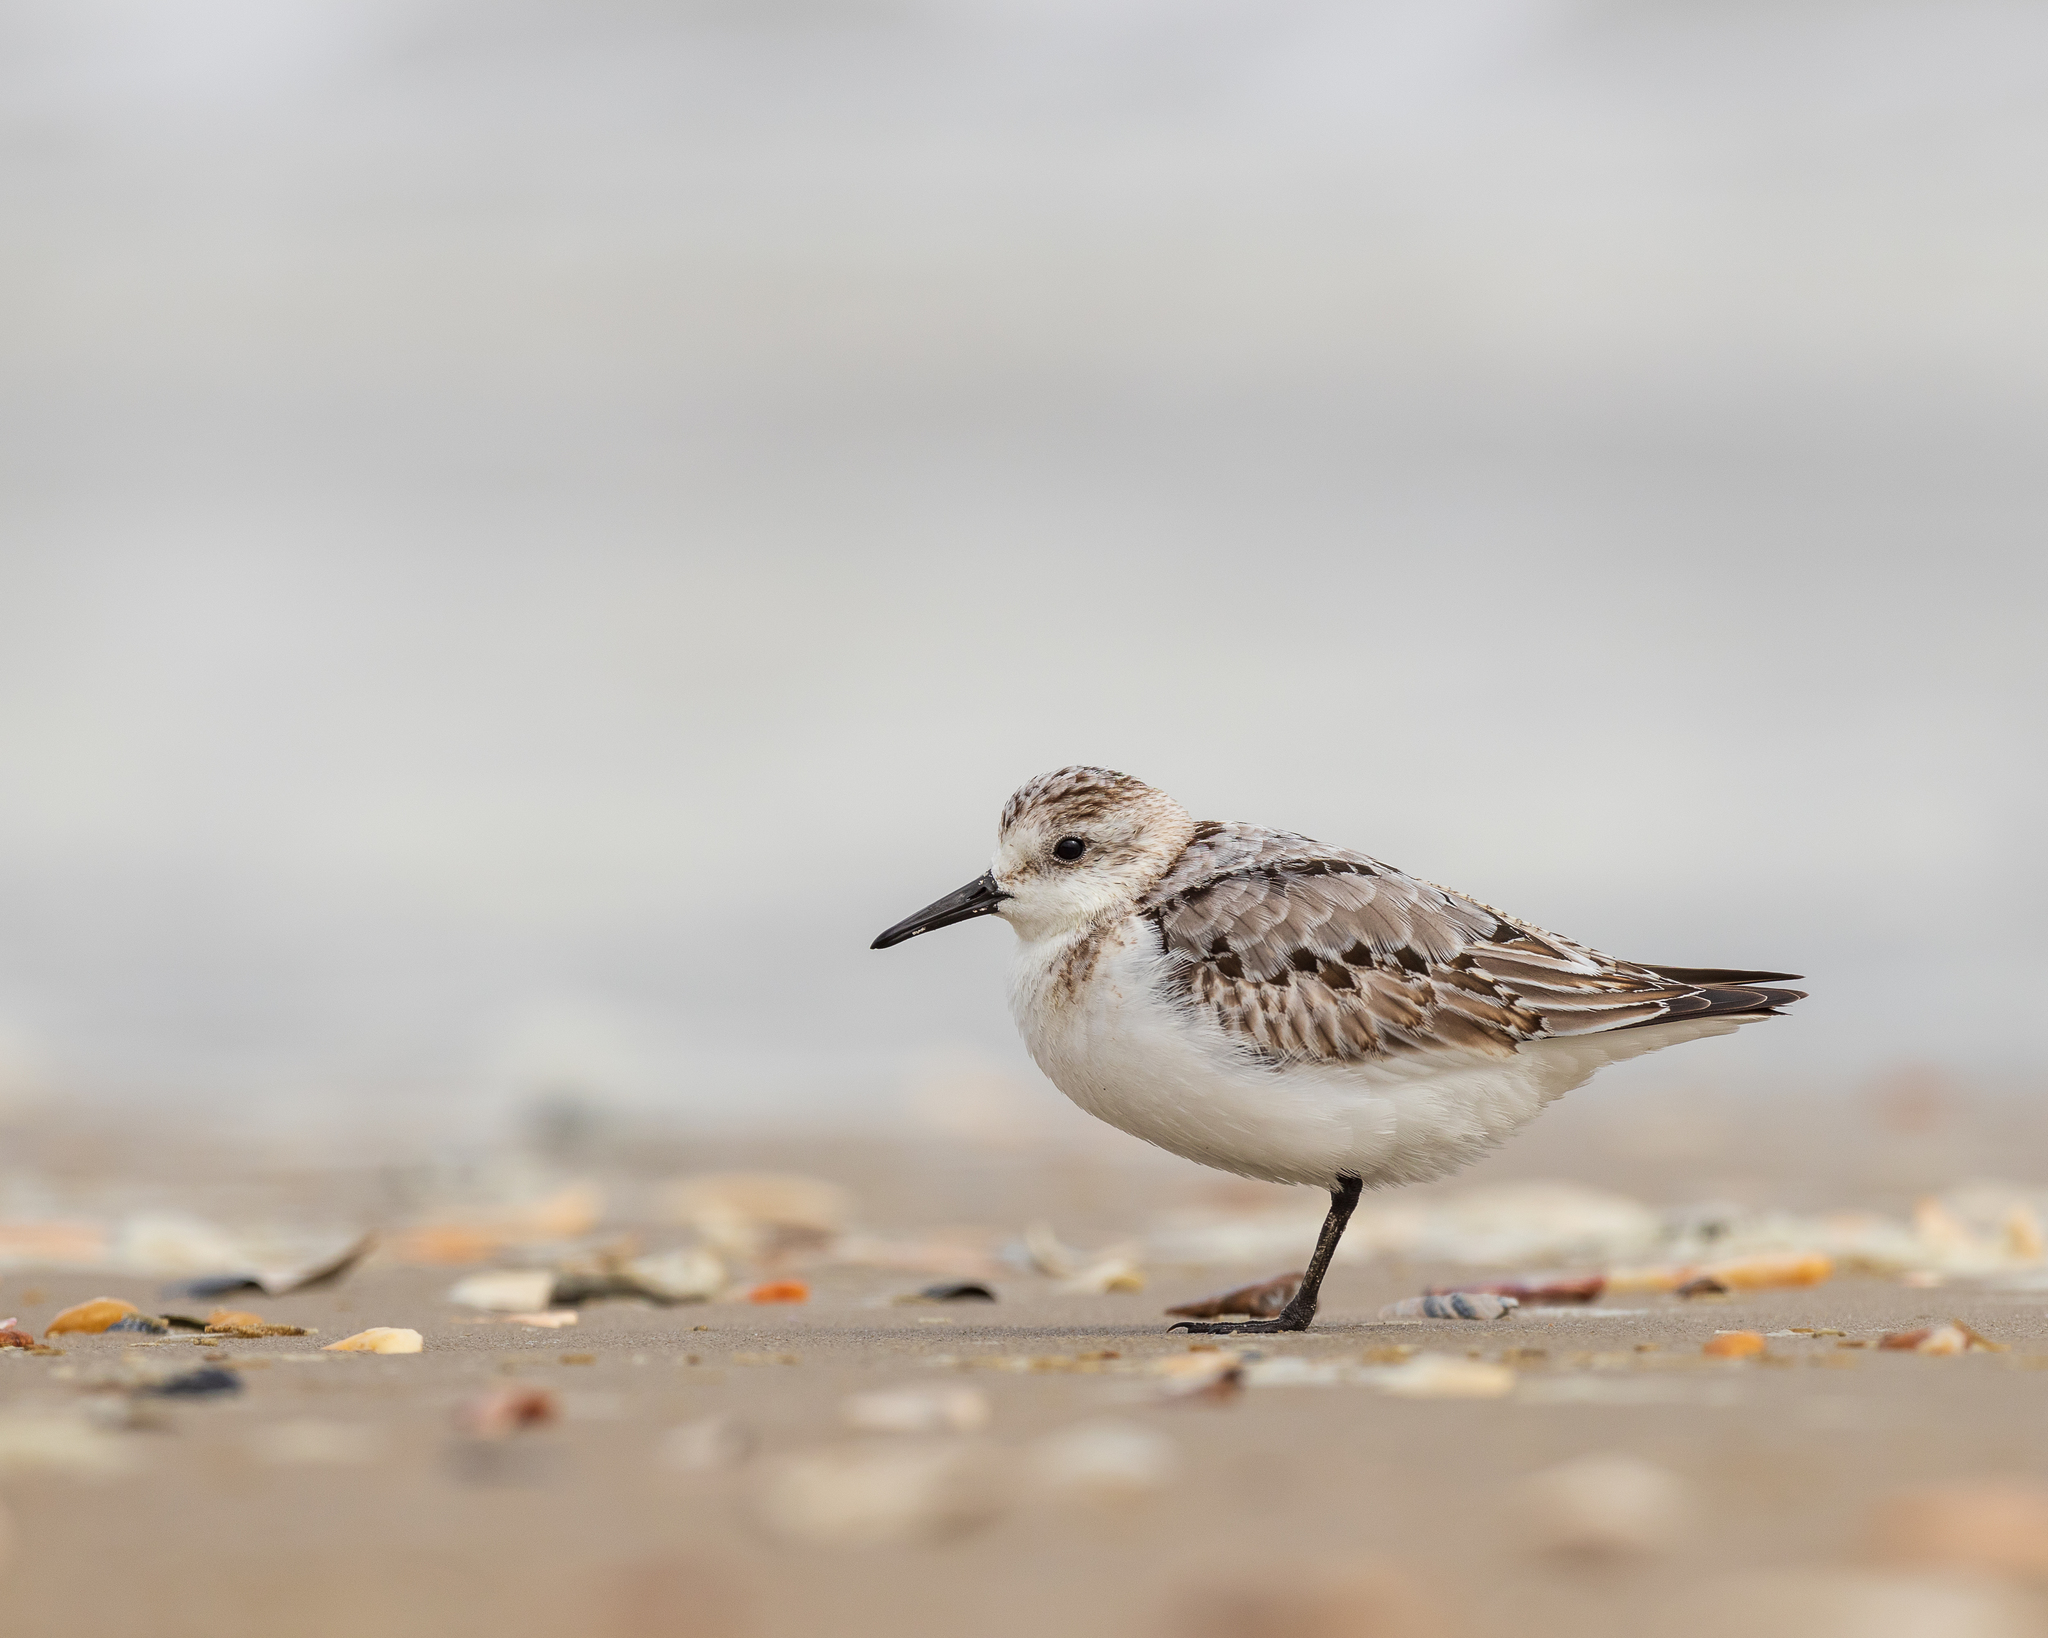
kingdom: Animalia
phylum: Chordata
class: Aves
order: Charadriiformes
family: Scolopacidae
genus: Calidris
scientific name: Calidris alba
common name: Sanderling
